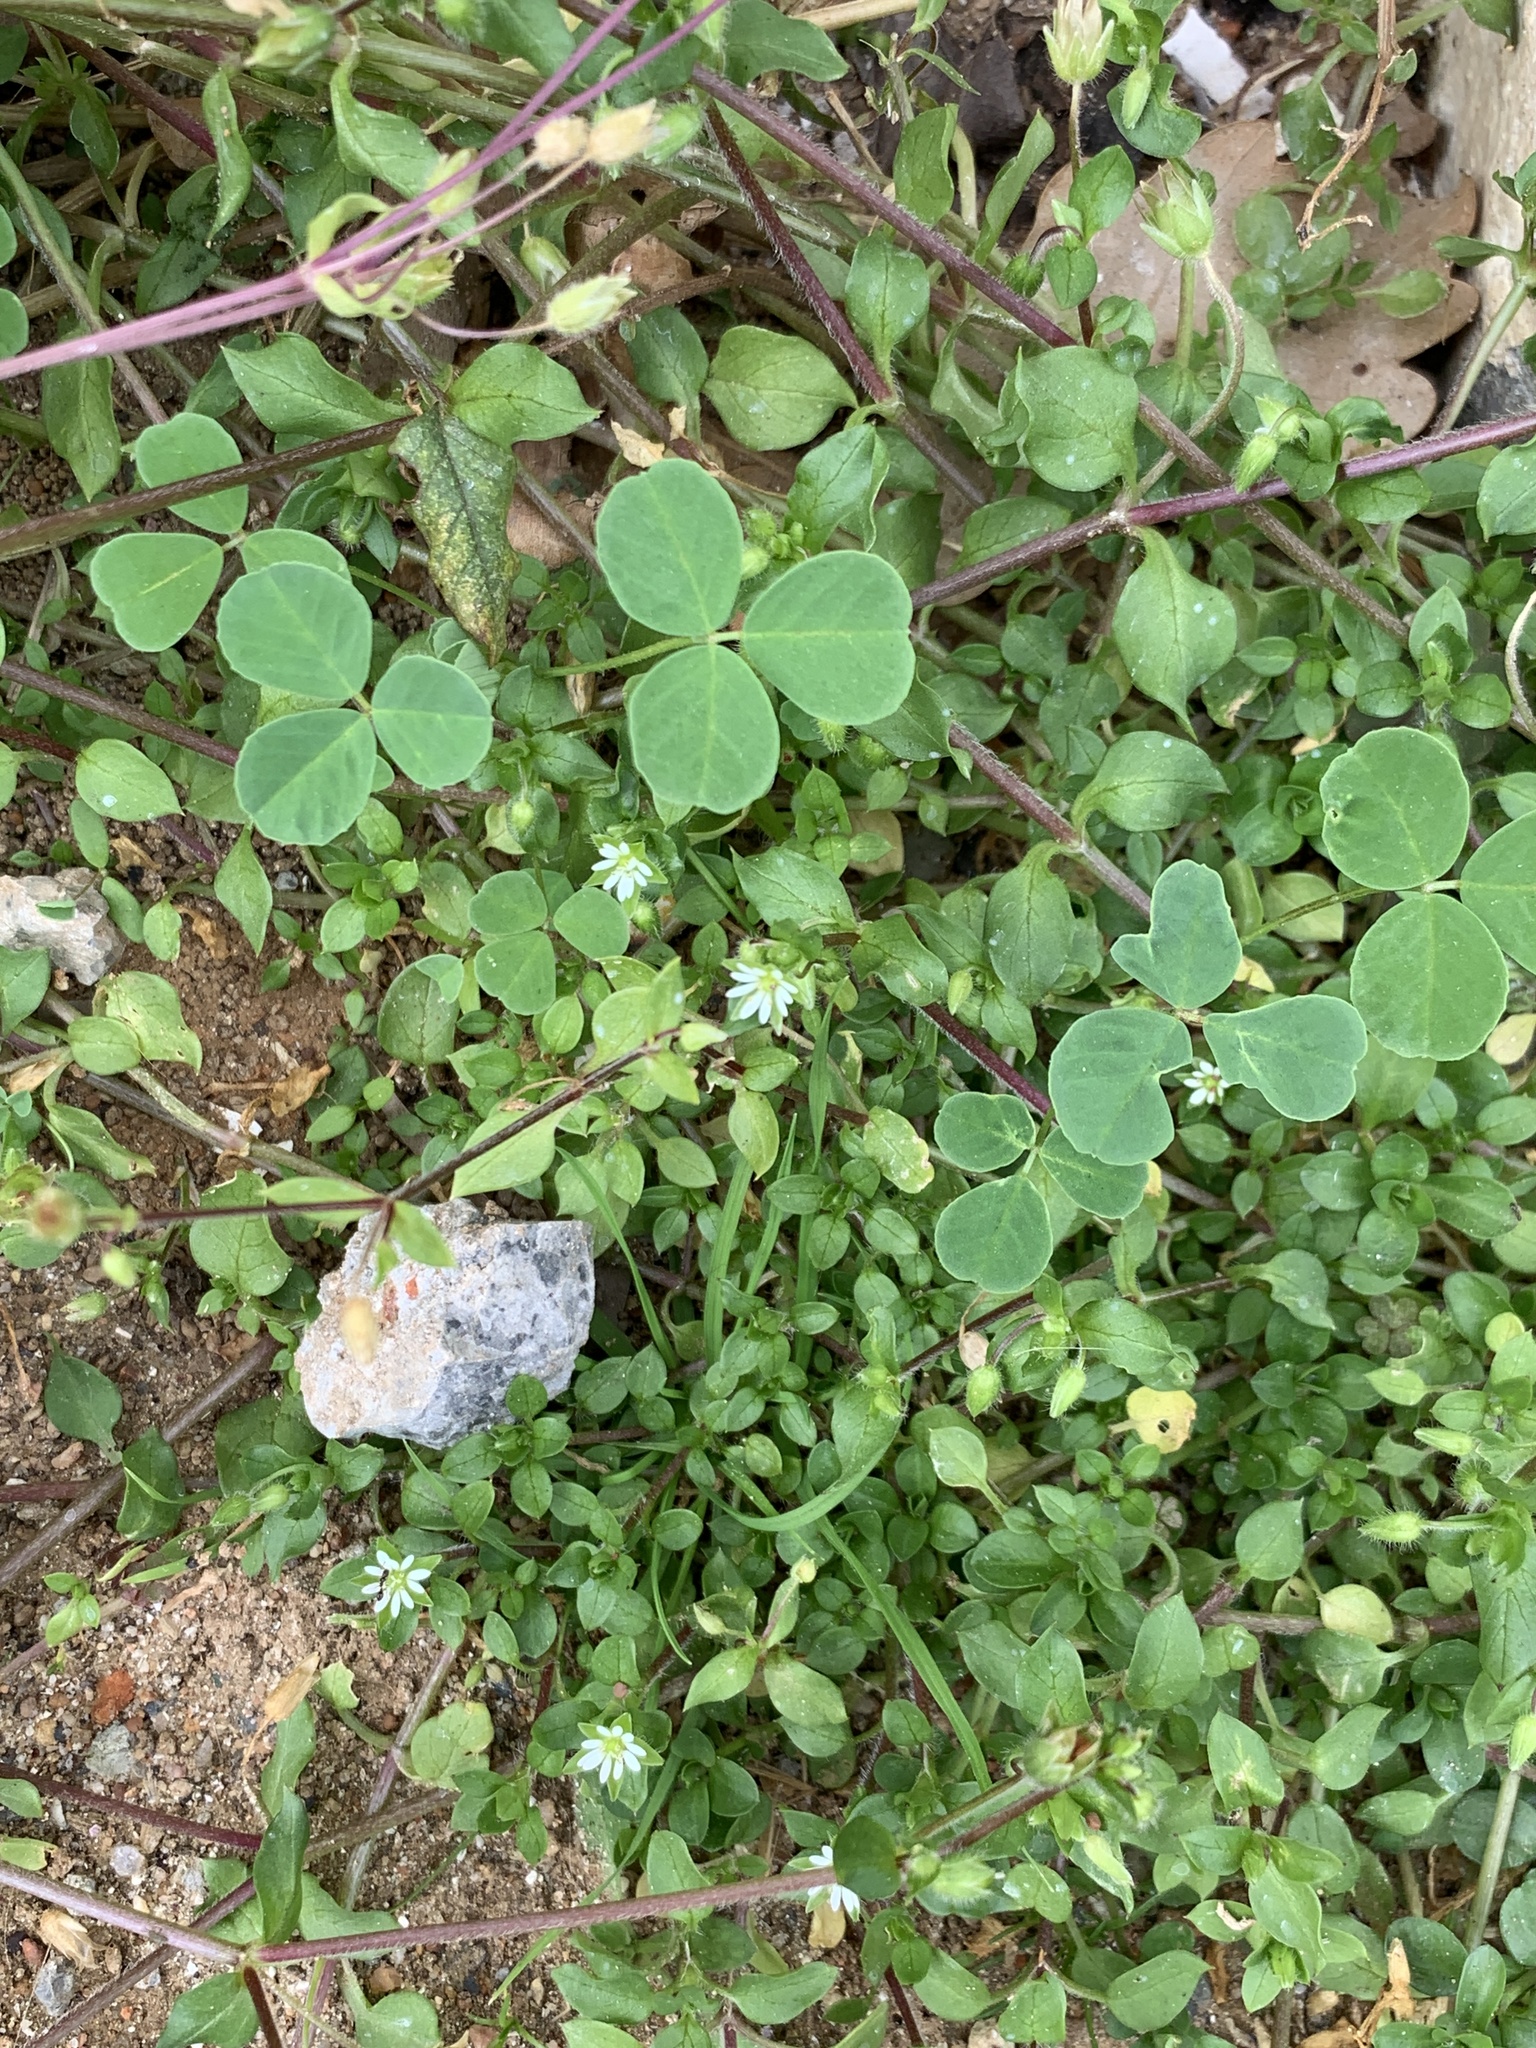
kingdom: Plantae
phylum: Tracheophyta
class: Magnoliopsida
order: Caryophyllales
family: Caryophyllaceae
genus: Stellaria
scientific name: Stellaria media
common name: Common chickweed
